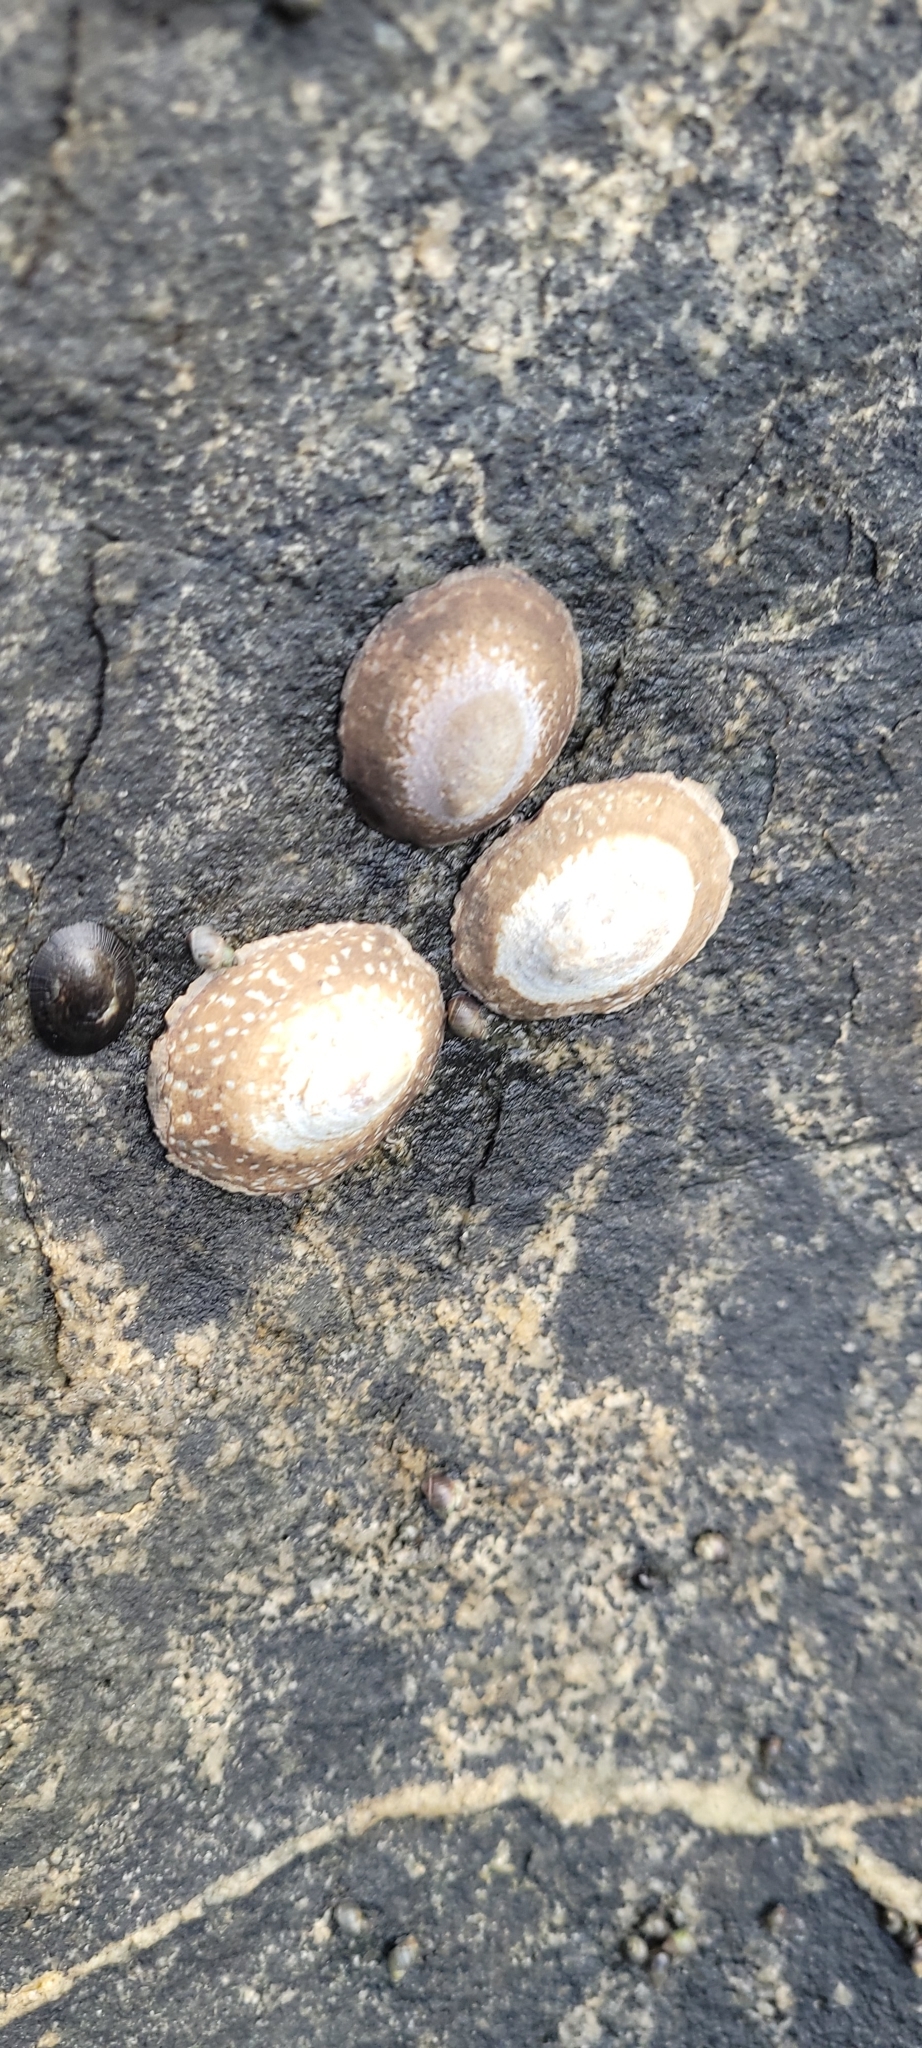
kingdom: Animalia
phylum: Mollusca
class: Gastropoda
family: Lottiidae
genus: Lottia
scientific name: Lottia orbignyi
